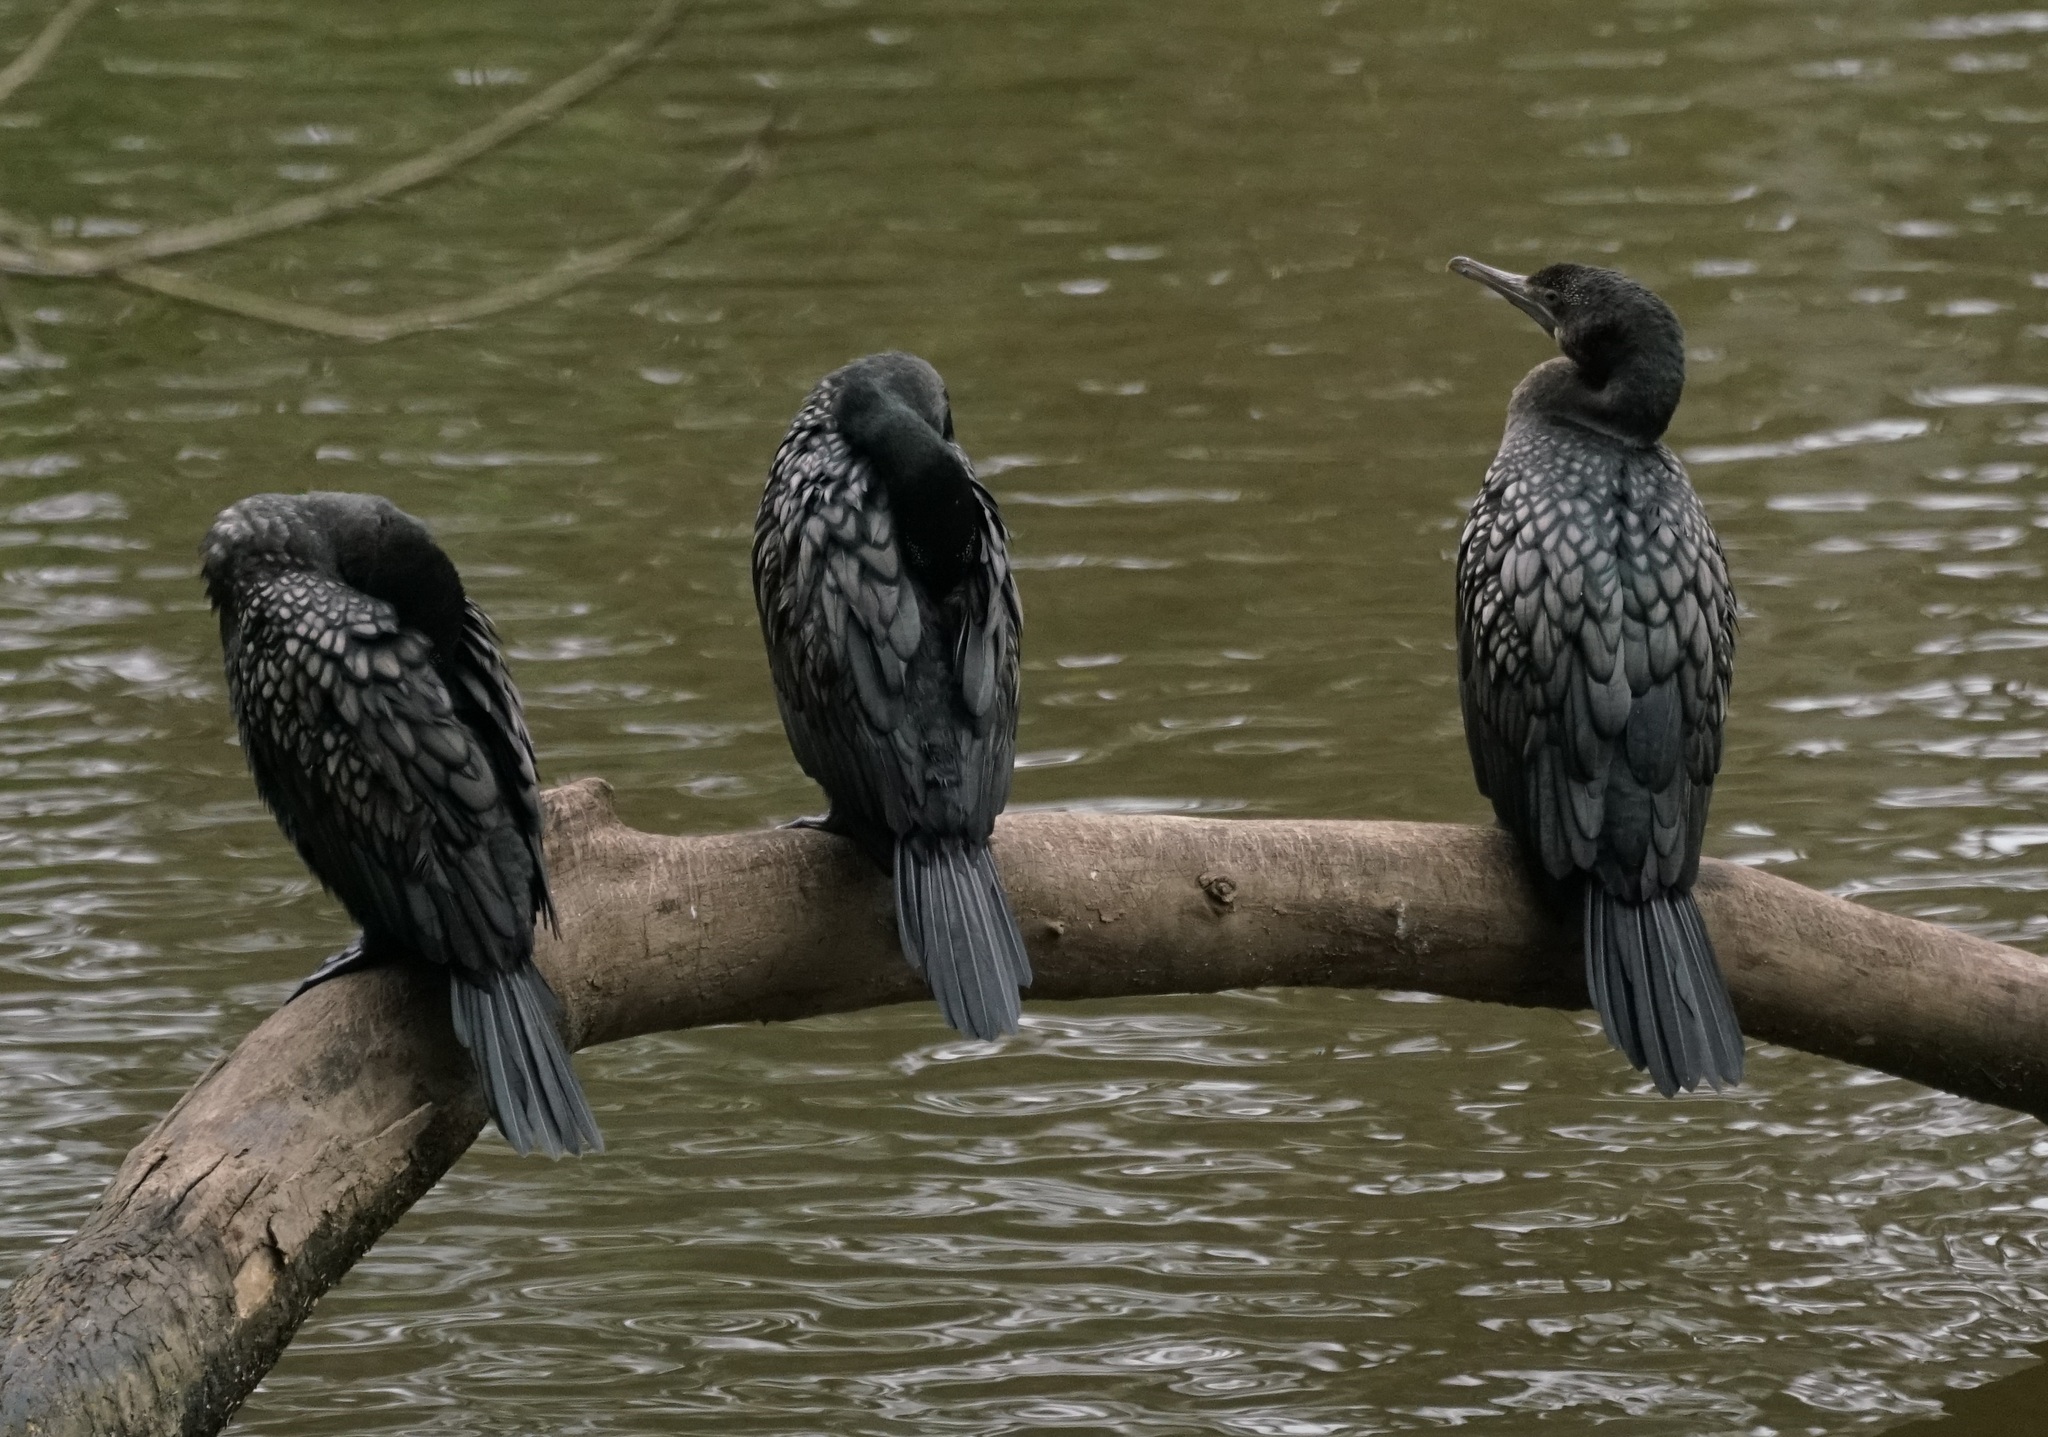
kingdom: Animalia
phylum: Chordata
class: Aves
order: Suliformes
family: Phalacrocoracidae
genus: Phalacrocorax
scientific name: Phalacrocorax sulcirostris
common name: Little black cormorant
